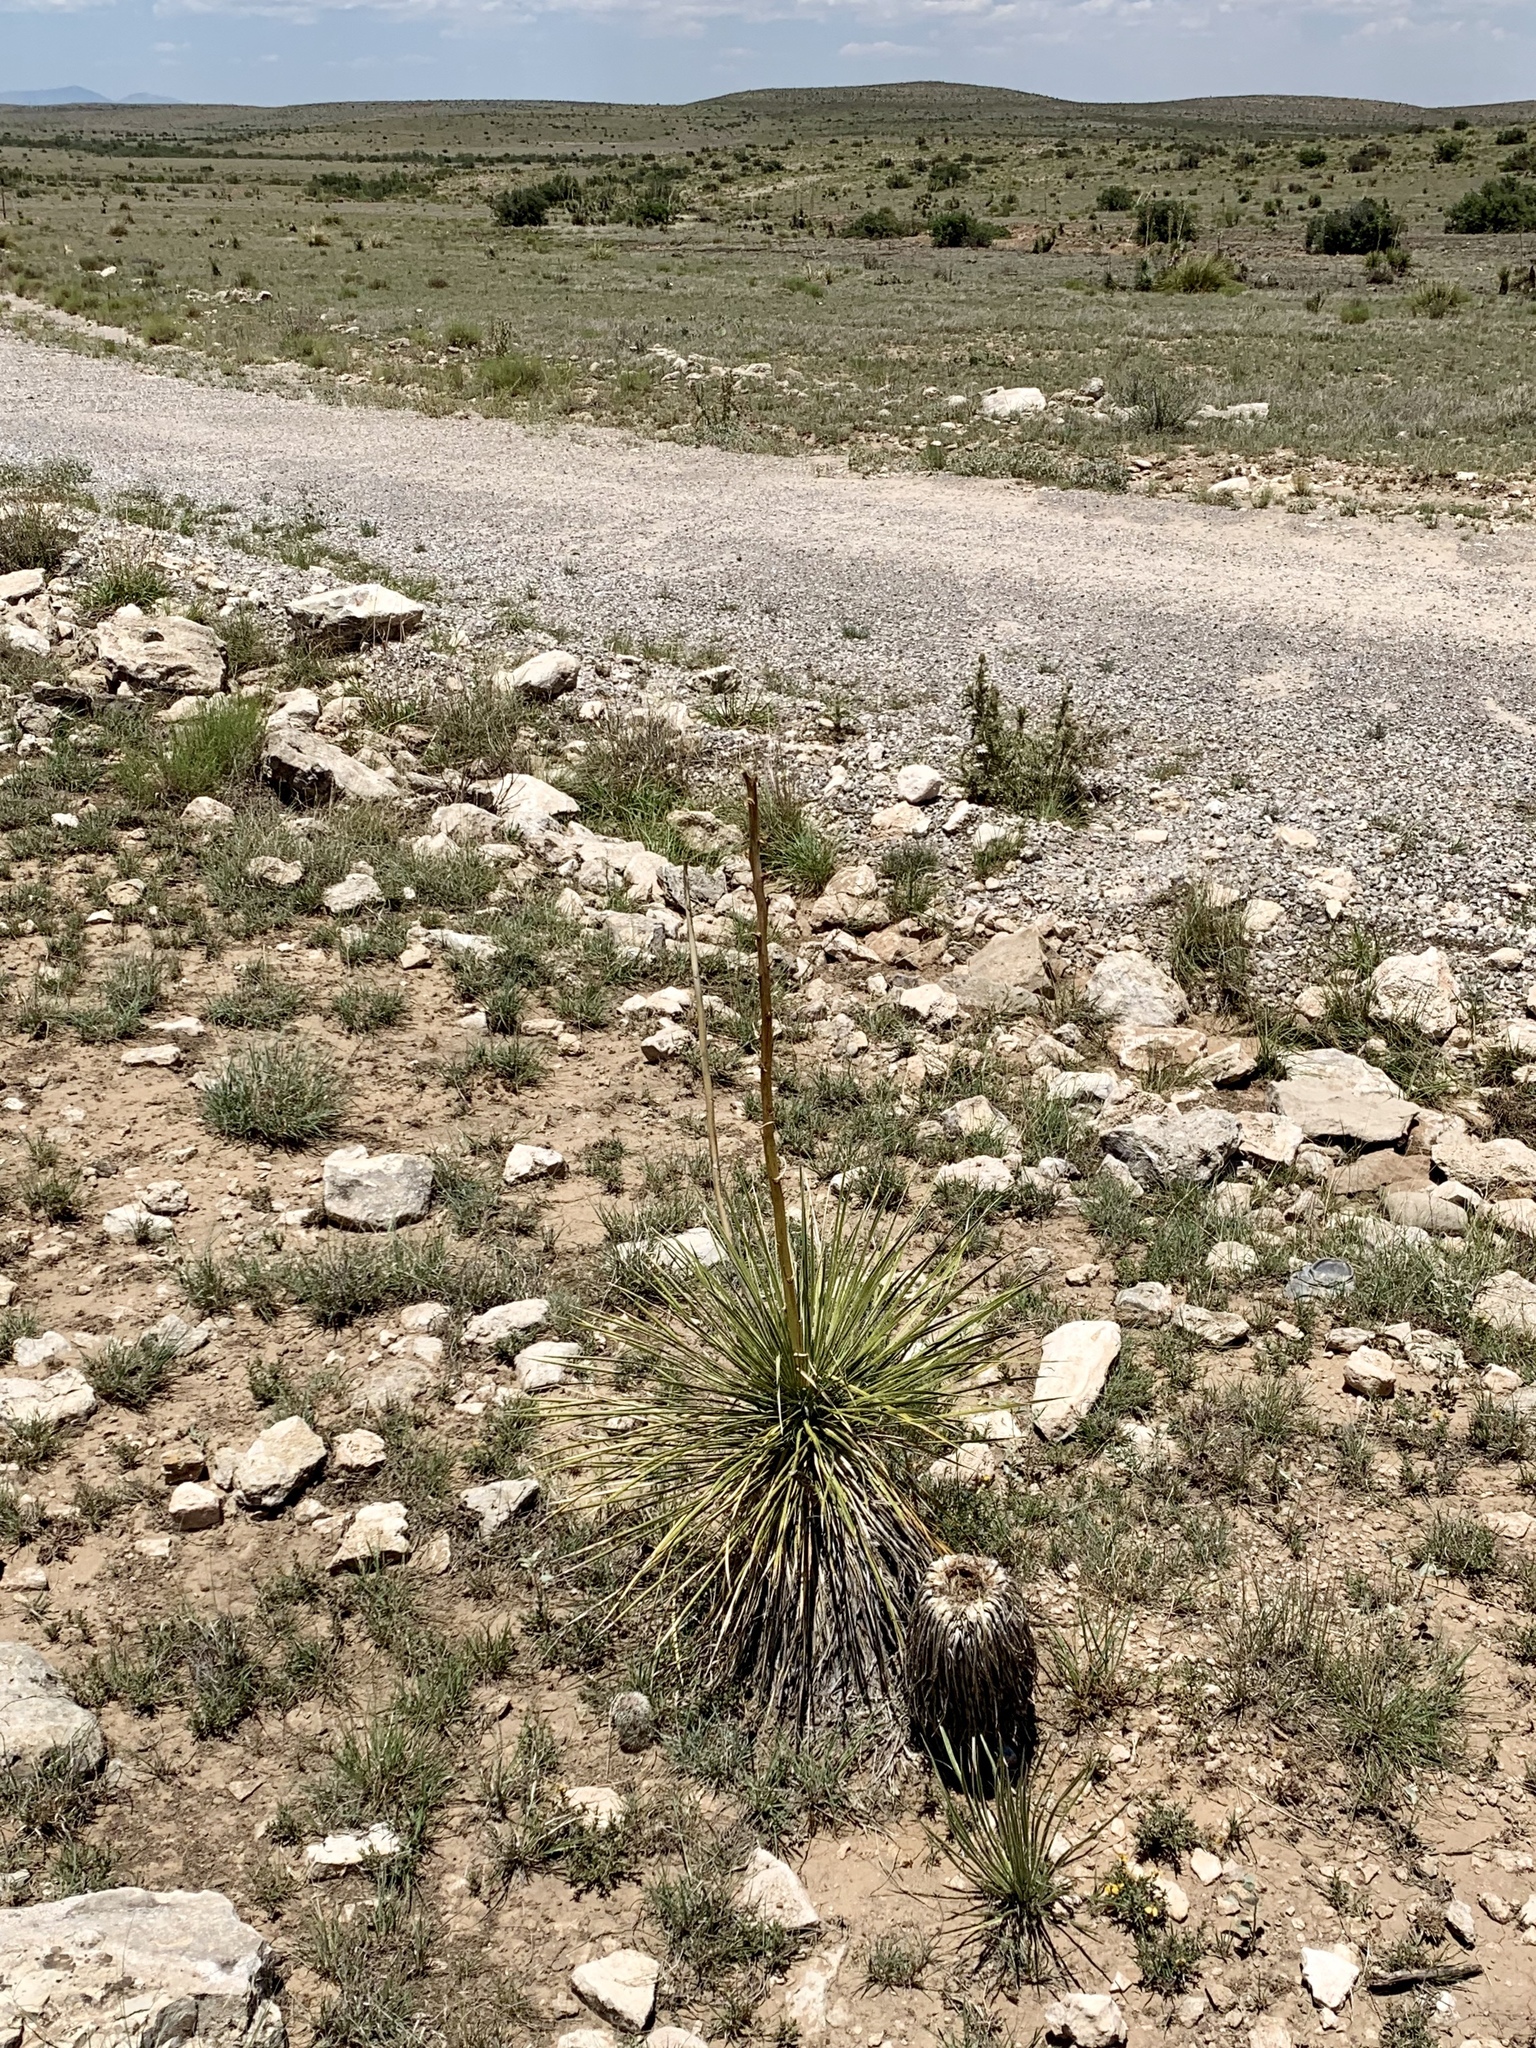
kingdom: Plantae
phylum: Tracheophyta
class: Liliopsida
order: Asparagales
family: Asparagaceae
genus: Yucca
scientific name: Yucca elata
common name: Palmella
